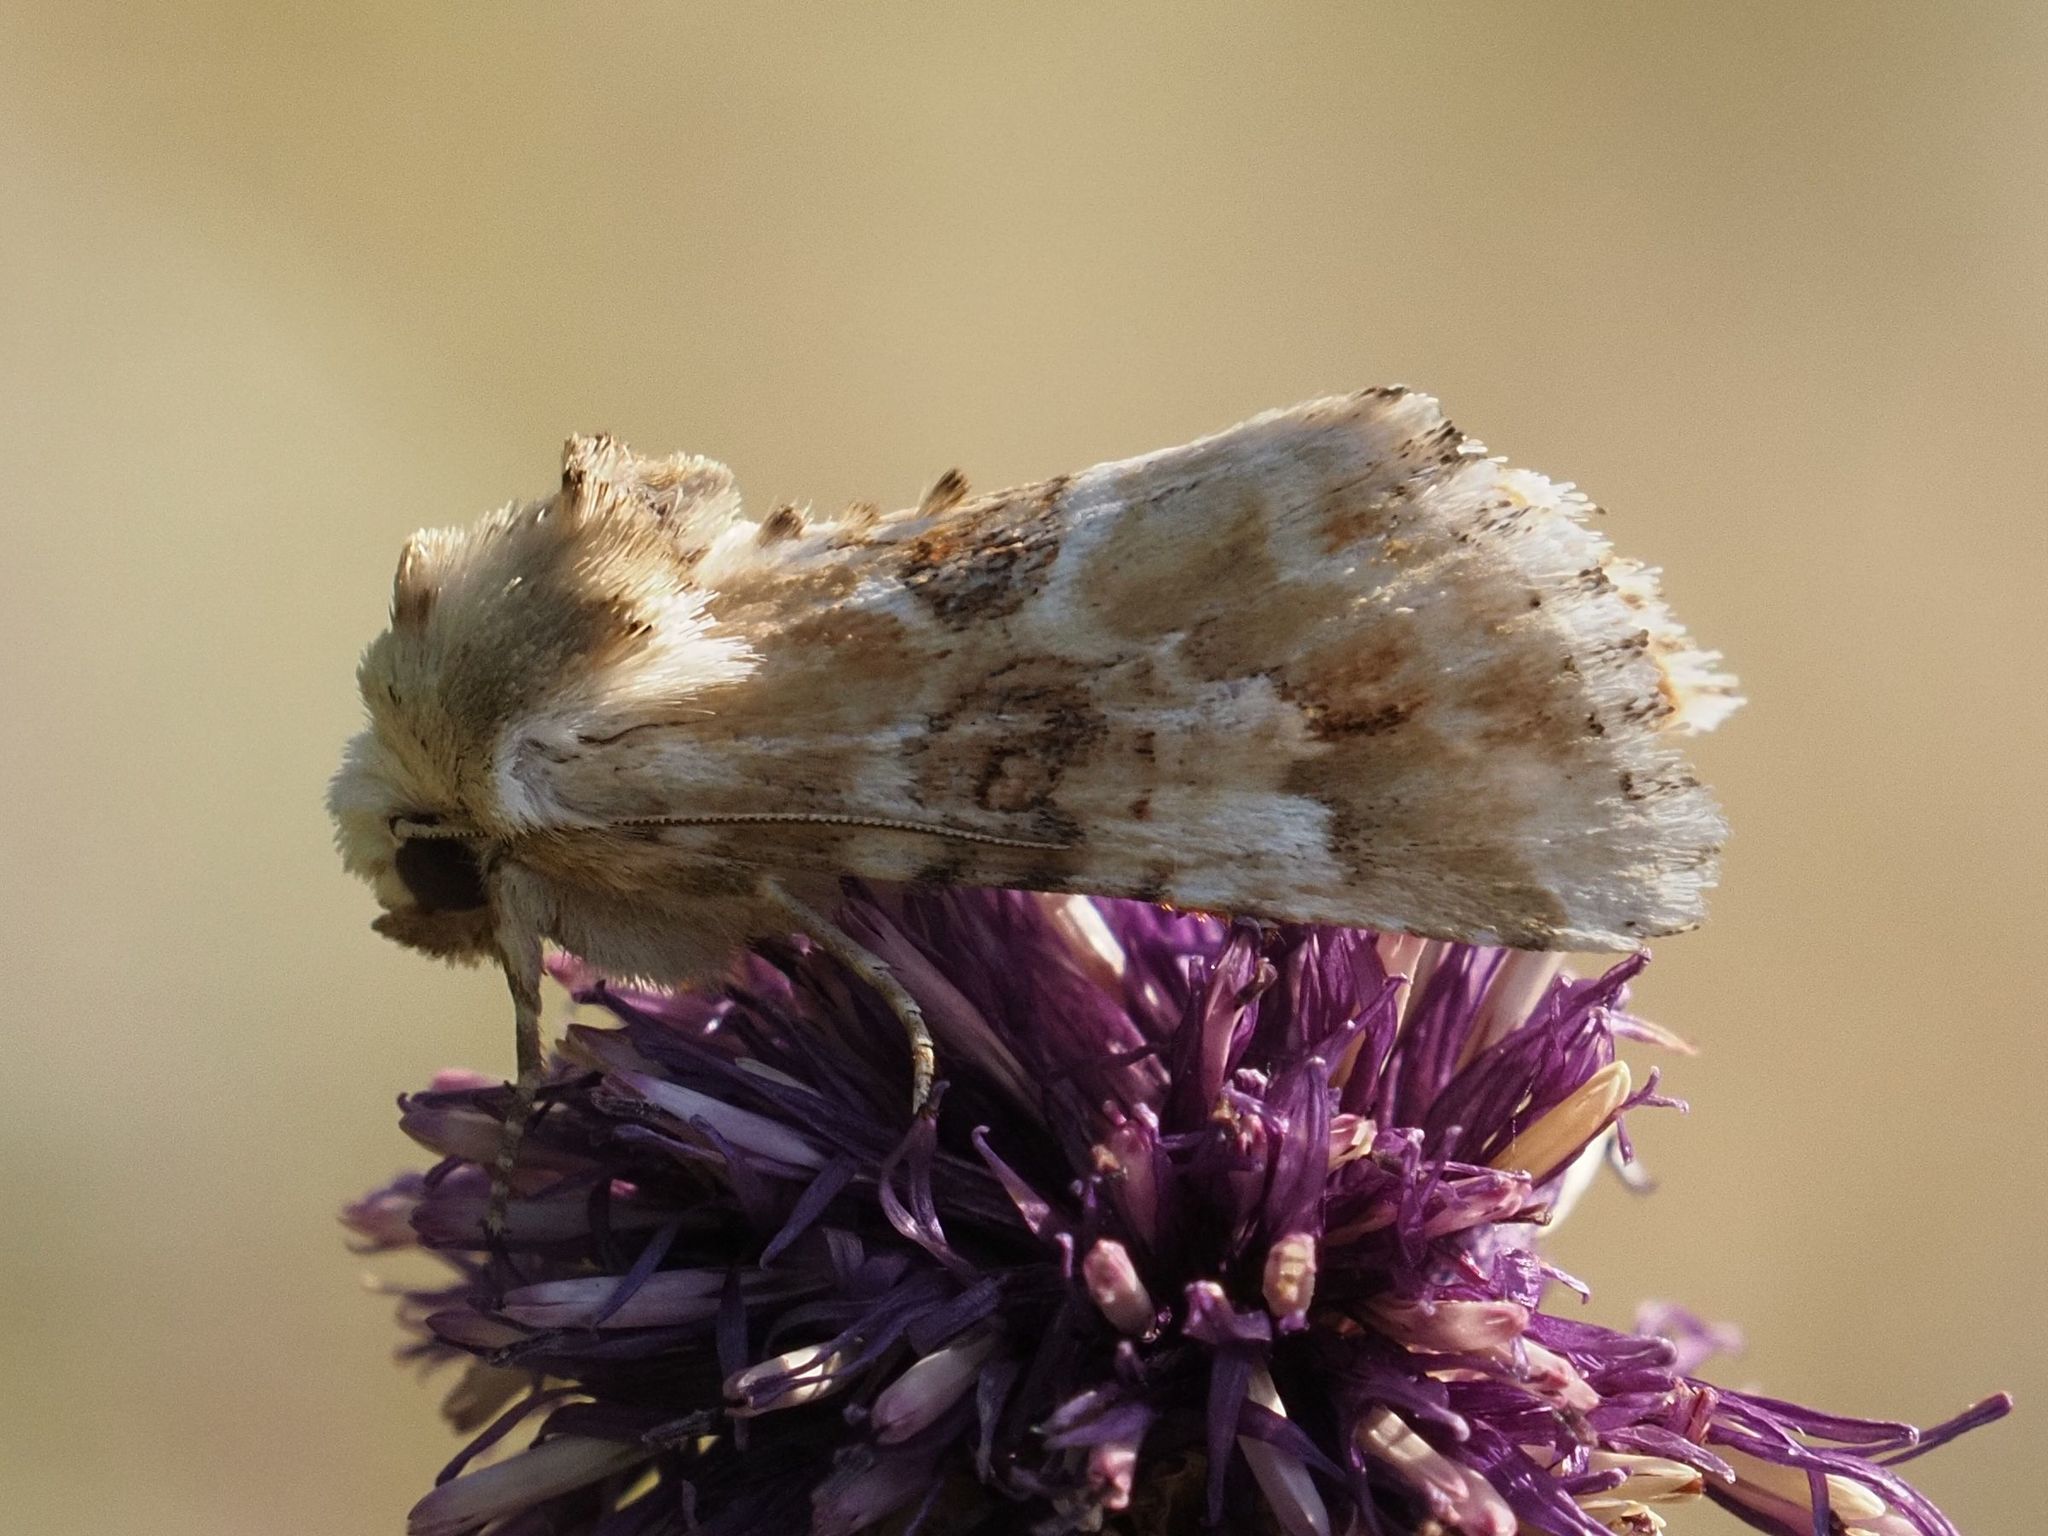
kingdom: Animalia
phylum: Arthropoda
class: Insecta
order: Lepidoptera
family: Noctuidae
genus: Eremobia
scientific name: Eremobia ochroleuca
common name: Dusky sallow
